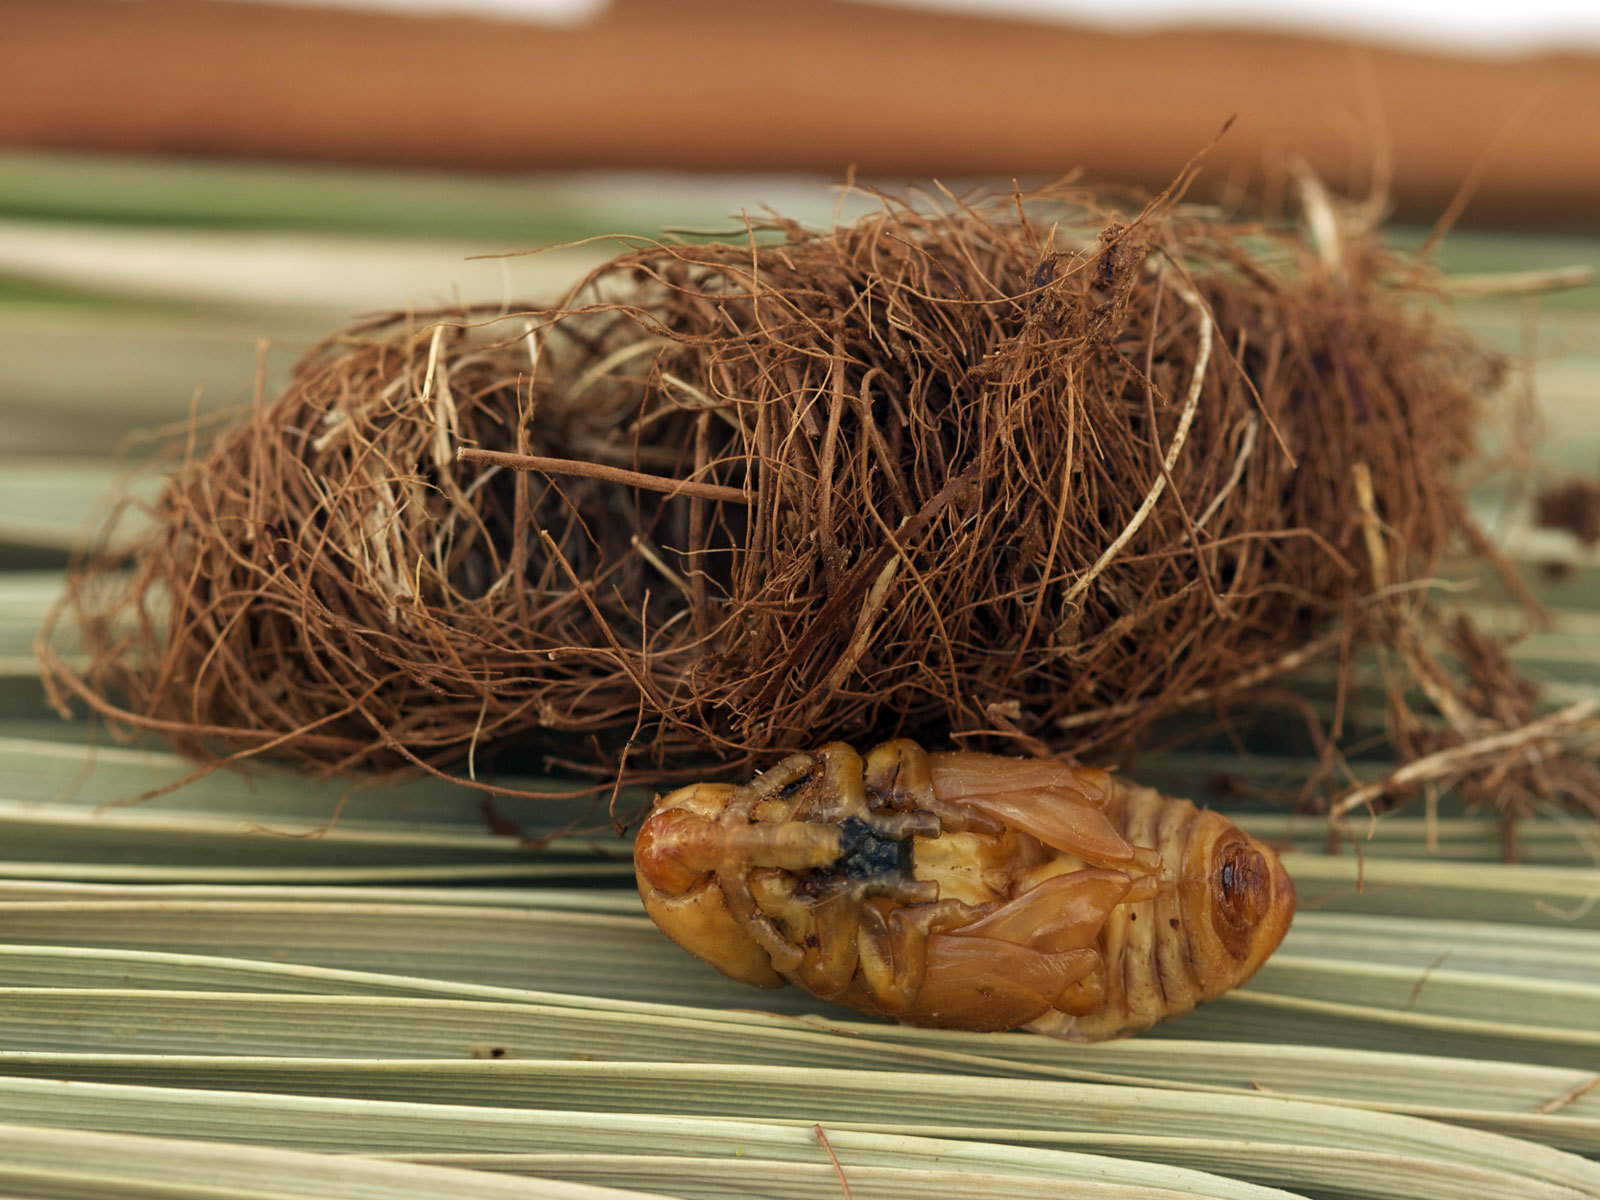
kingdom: Animalia
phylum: Arthropoda
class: Insecta
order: Coleoptera
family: Dryophthoridae
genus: Rhynchophorus
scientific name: Rhynchophorus ferrugineus
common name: Red palm weevil
